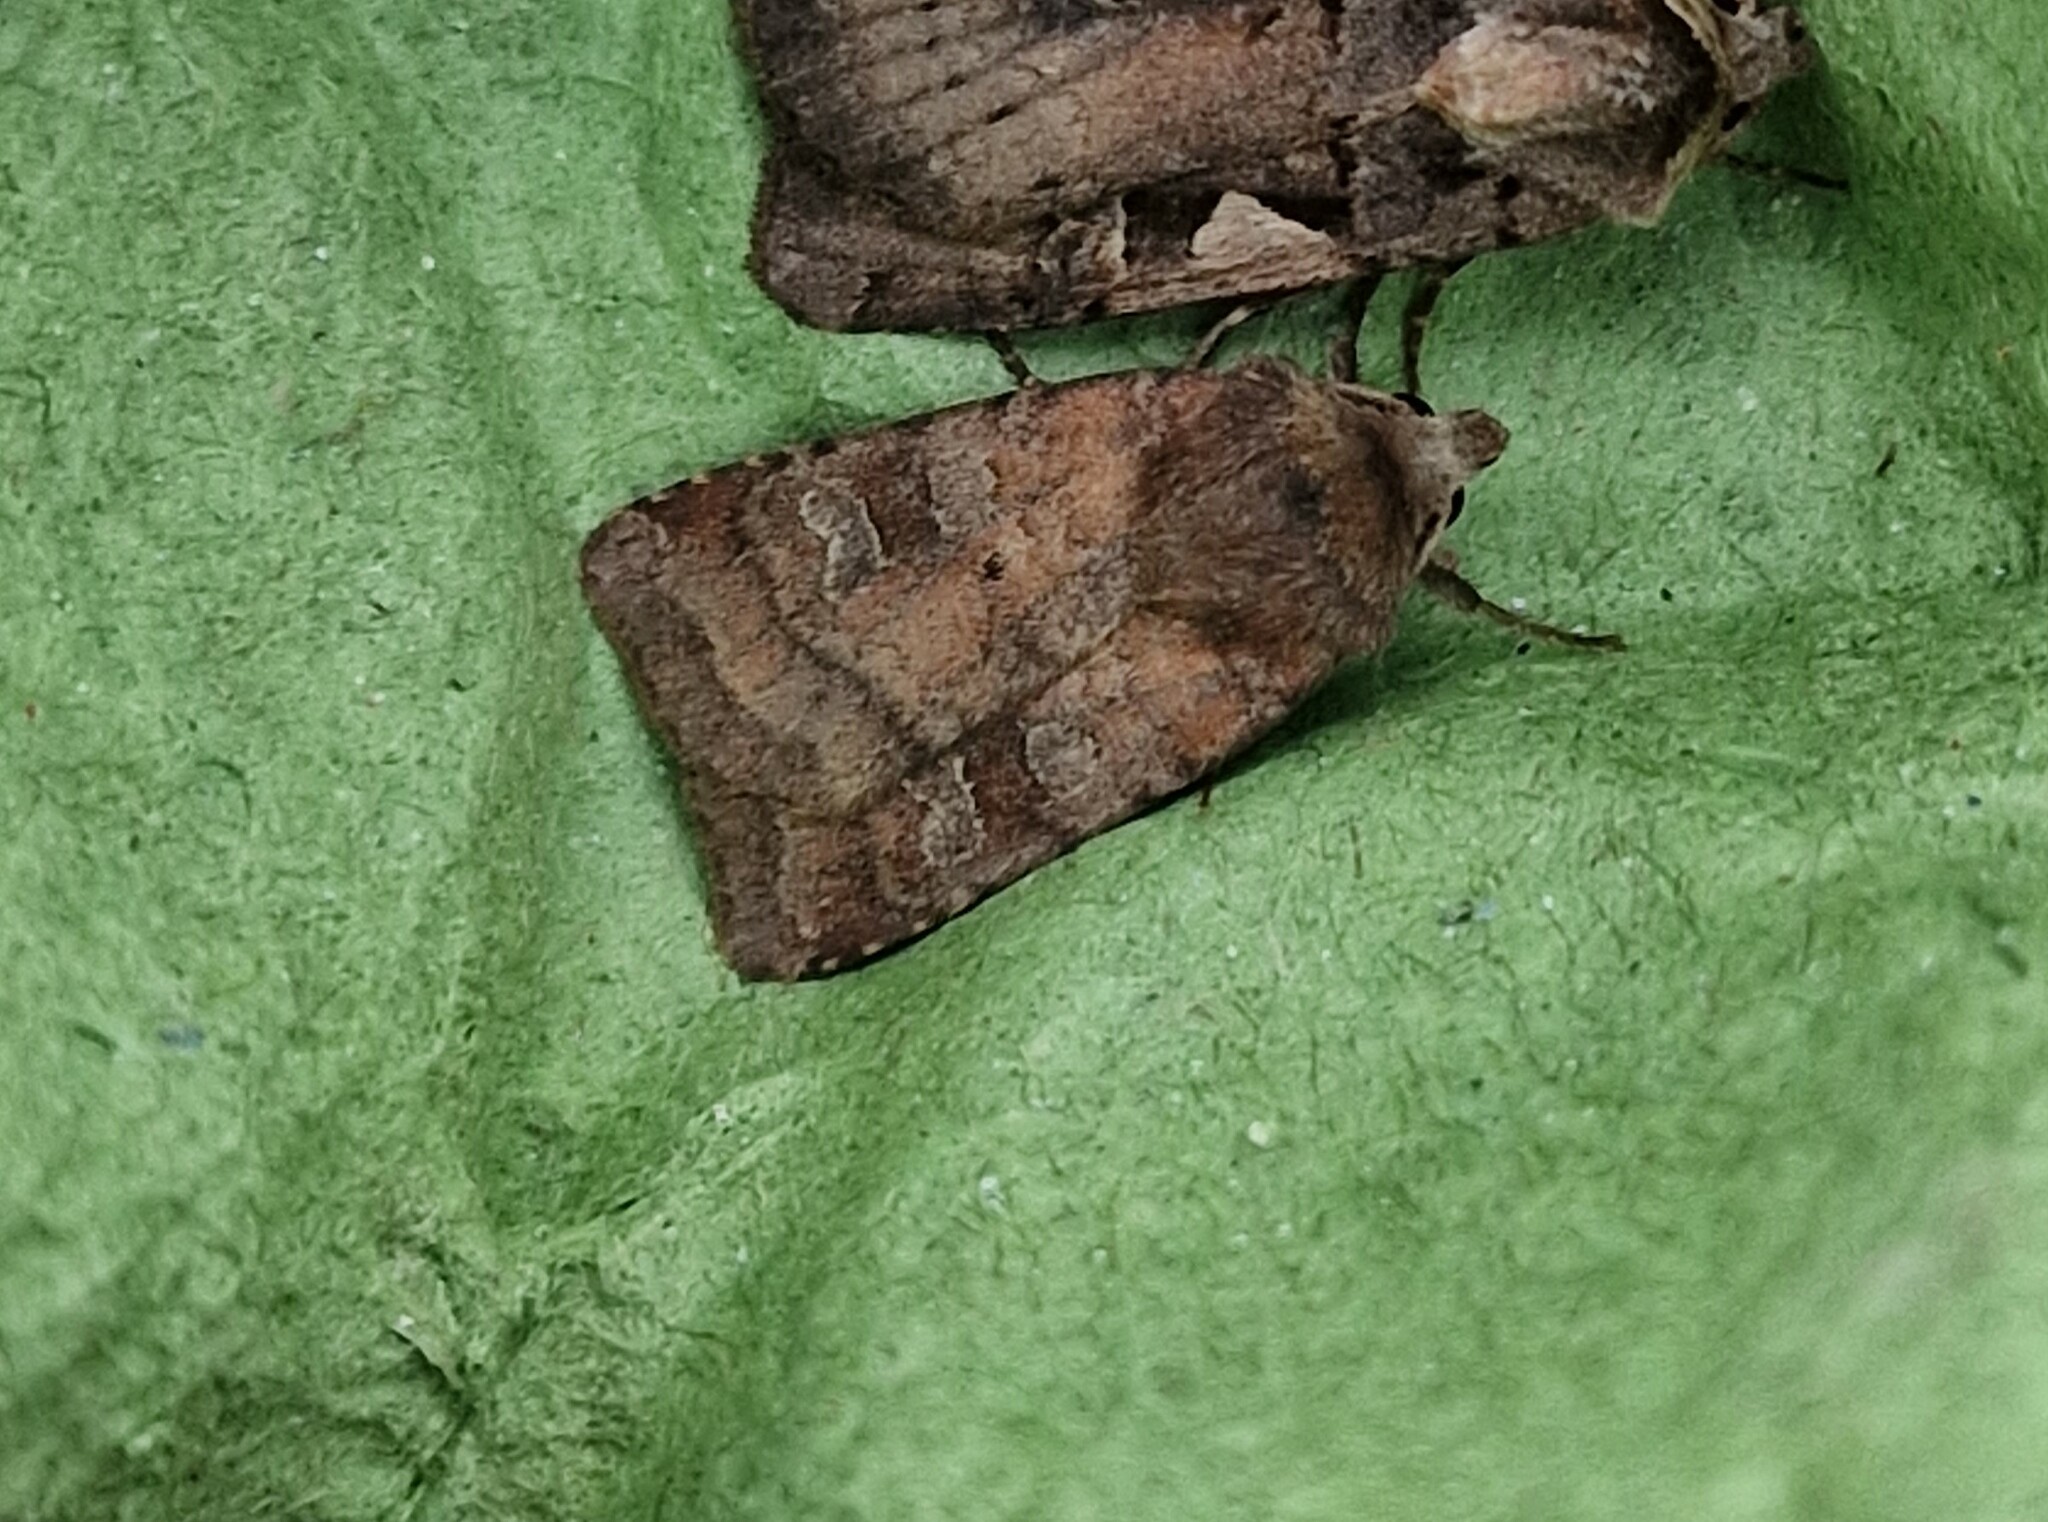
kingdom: Animalia
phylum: Arthropoda
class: Insecta
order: Lepidoptera
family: Noctuidae
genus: Diarsia
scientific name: Diarsia rubi
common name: Small square-spot
